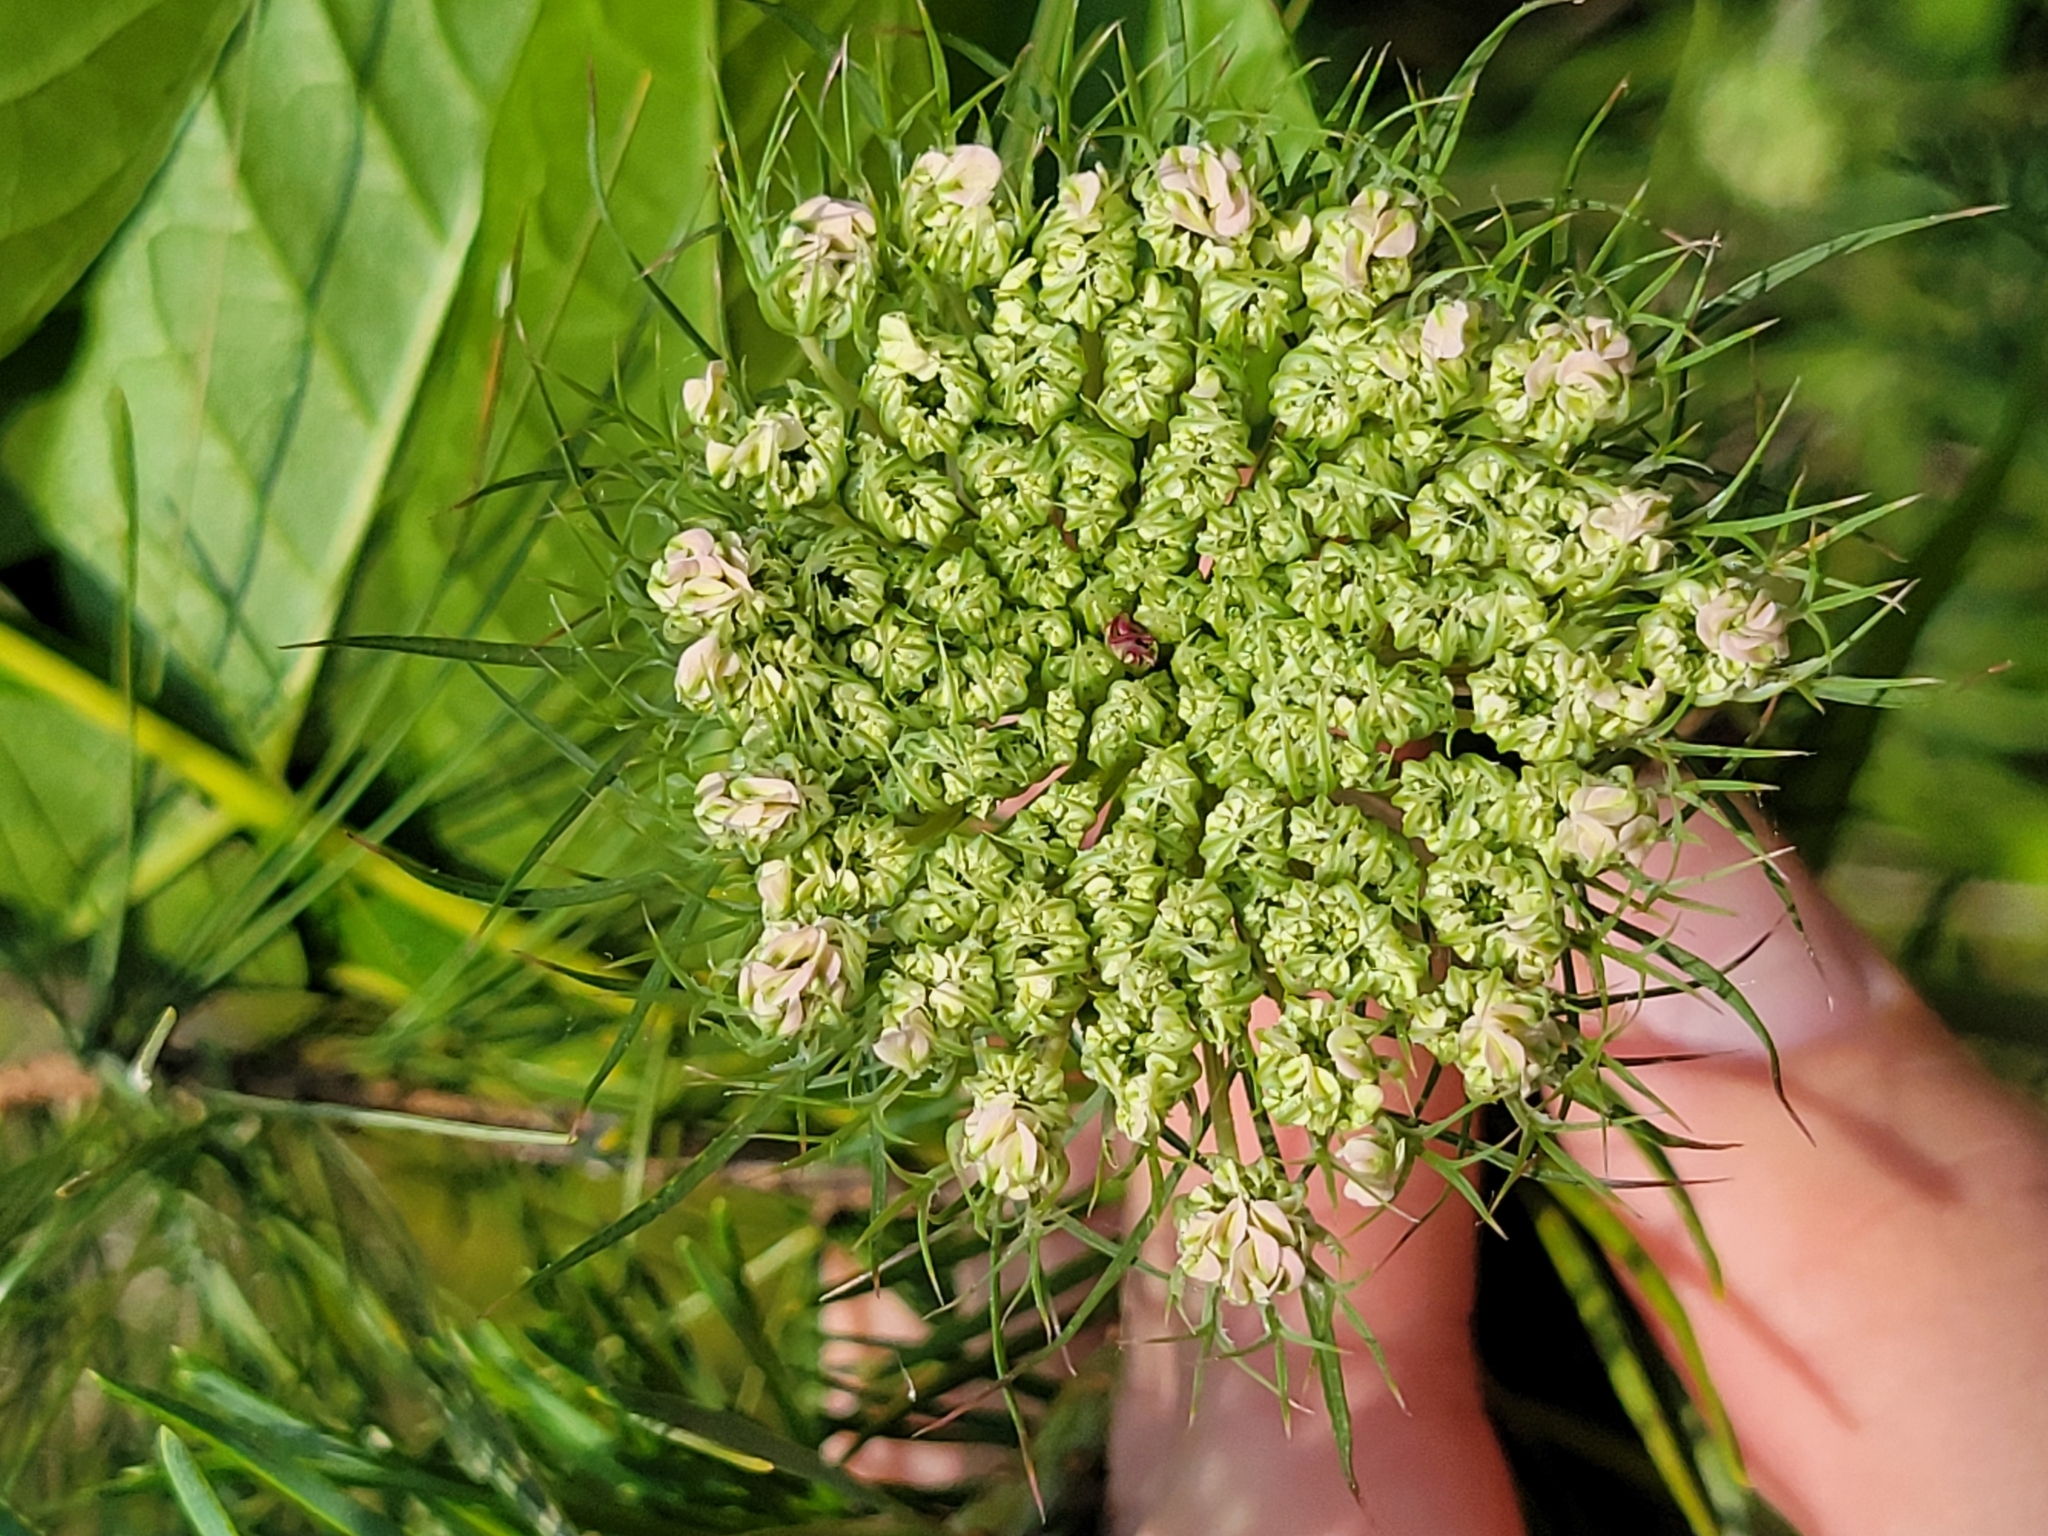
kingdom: Plantae
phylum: Tracheophyta
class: Magnoliopsida
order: Apiales
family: Apiaceae
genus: Daucus
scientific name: Daucus carota
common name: Wild carrot
